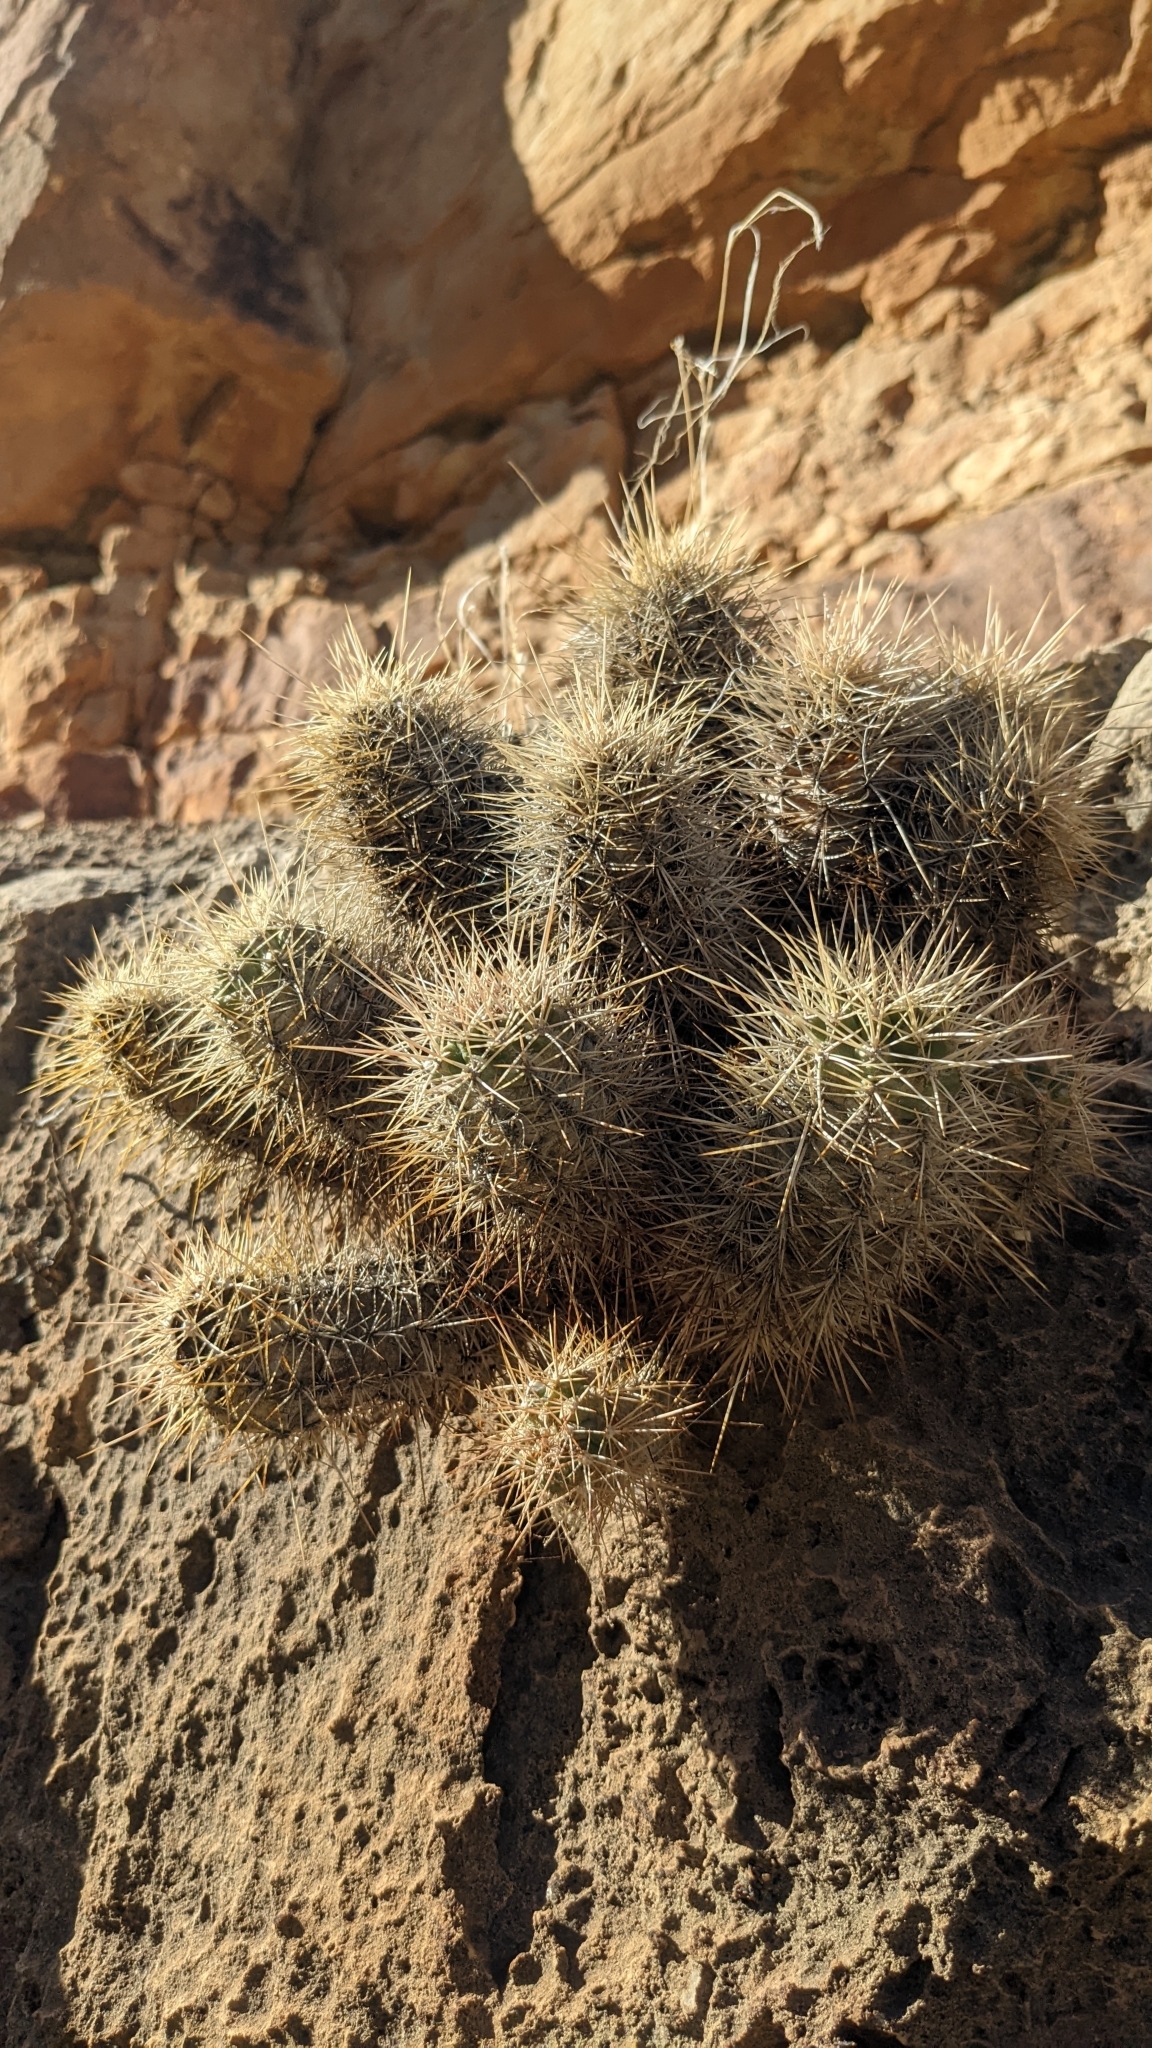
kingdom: Plantae
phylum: Tracheophyta
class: Magnoliopsida
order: Caryophyllales
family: Cactaceae
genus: Echinocereus
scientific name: Echinocereus triglochidiatus
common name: Claretcup hedgehog
